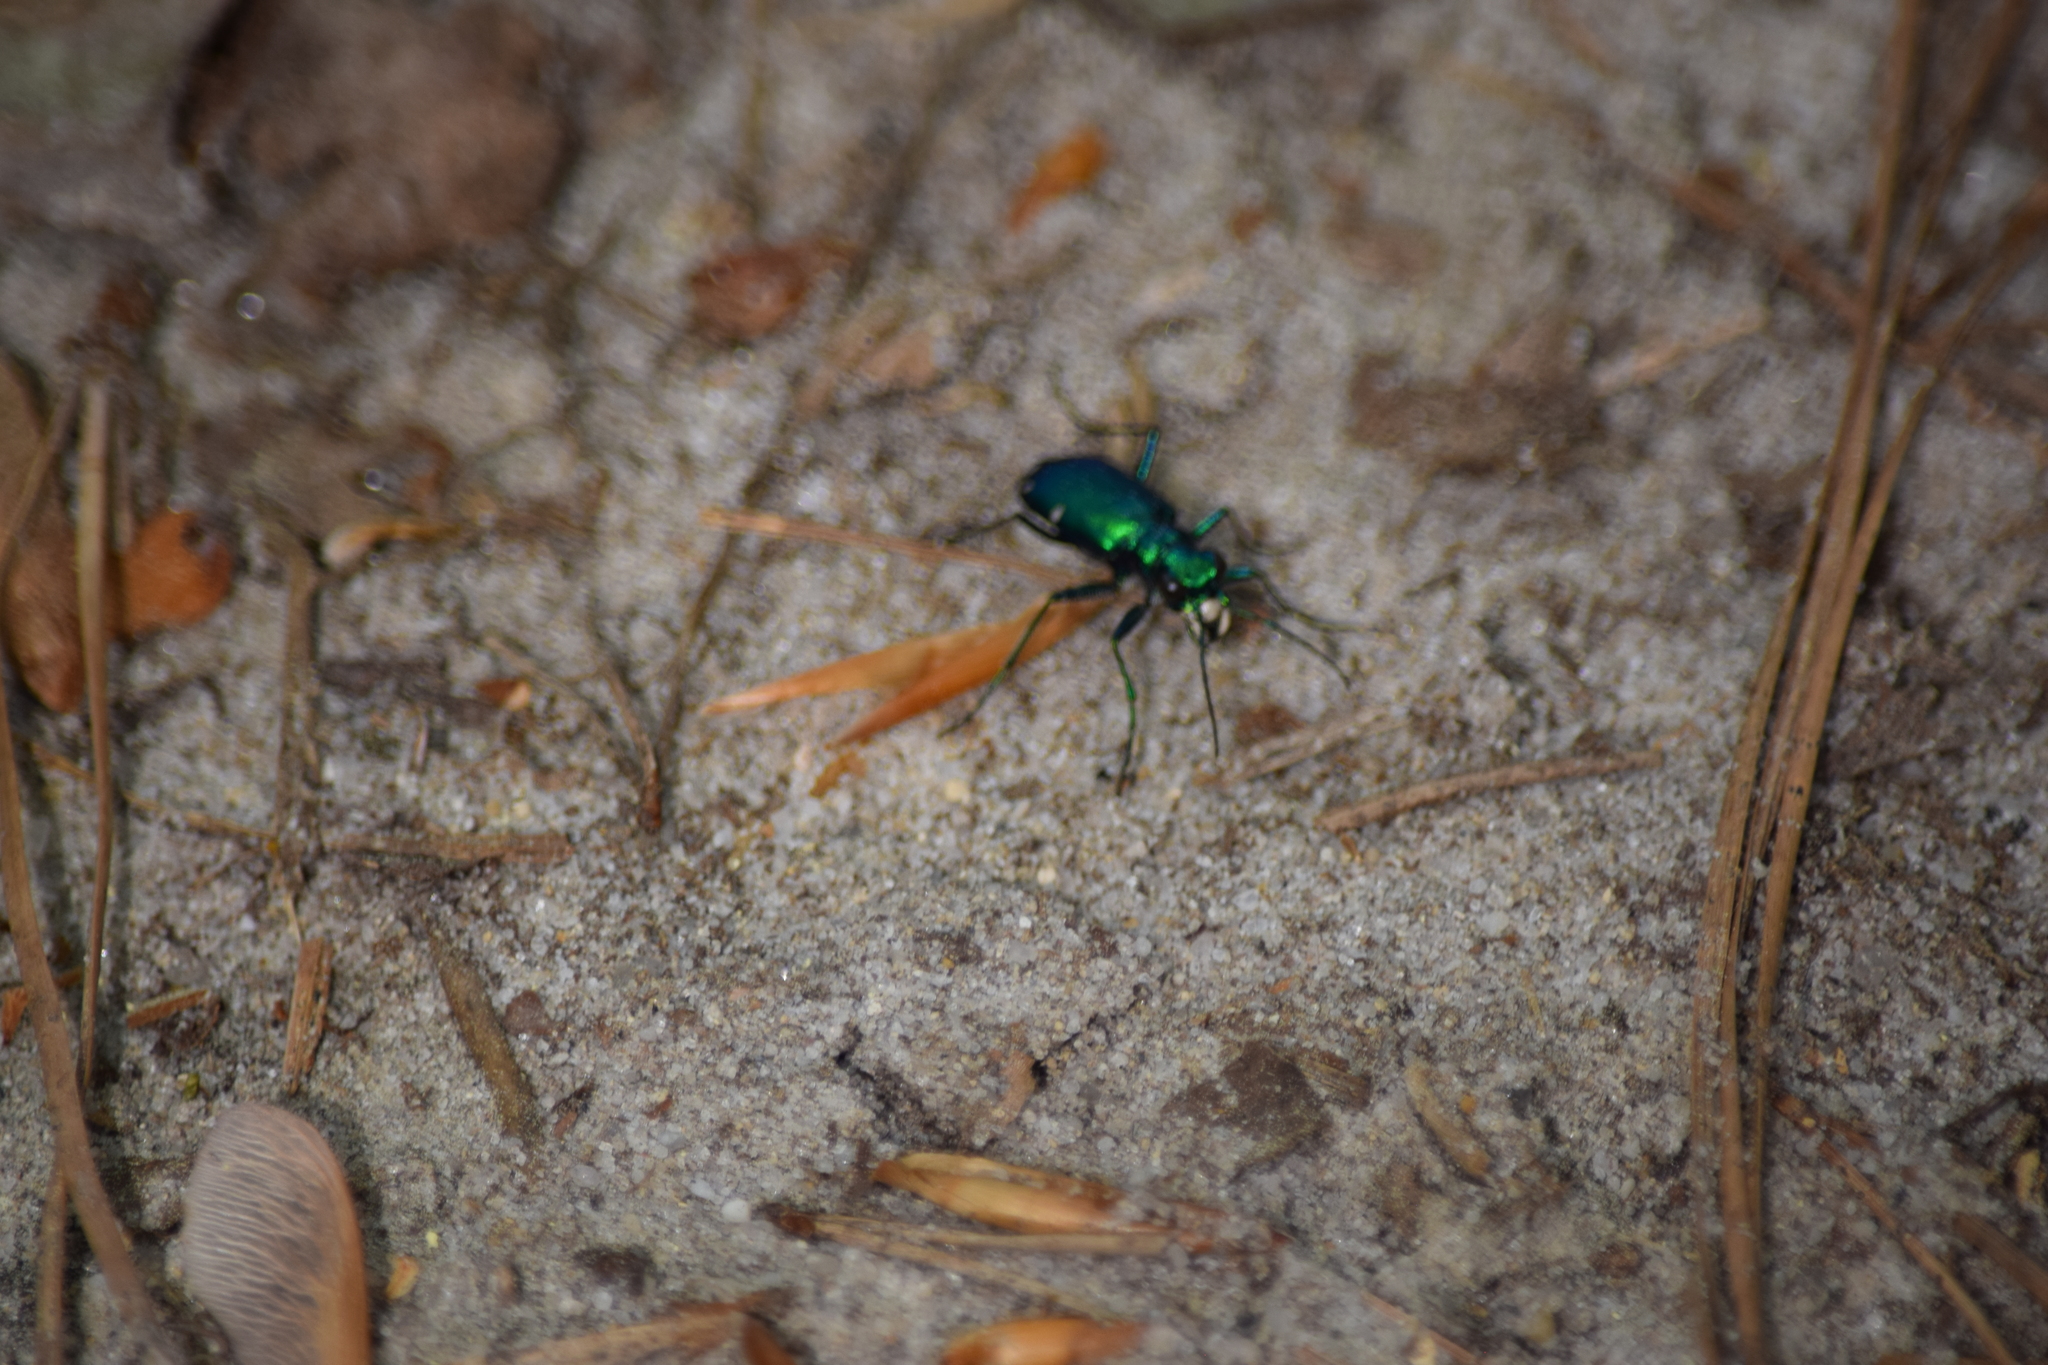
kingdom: Animalia
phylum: Arthropoda
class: Insecta
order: Coleoptera
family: Carabidae
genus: Cicindela
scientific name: Cicindela sexguttata
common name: Six-spotted tiger beetle
